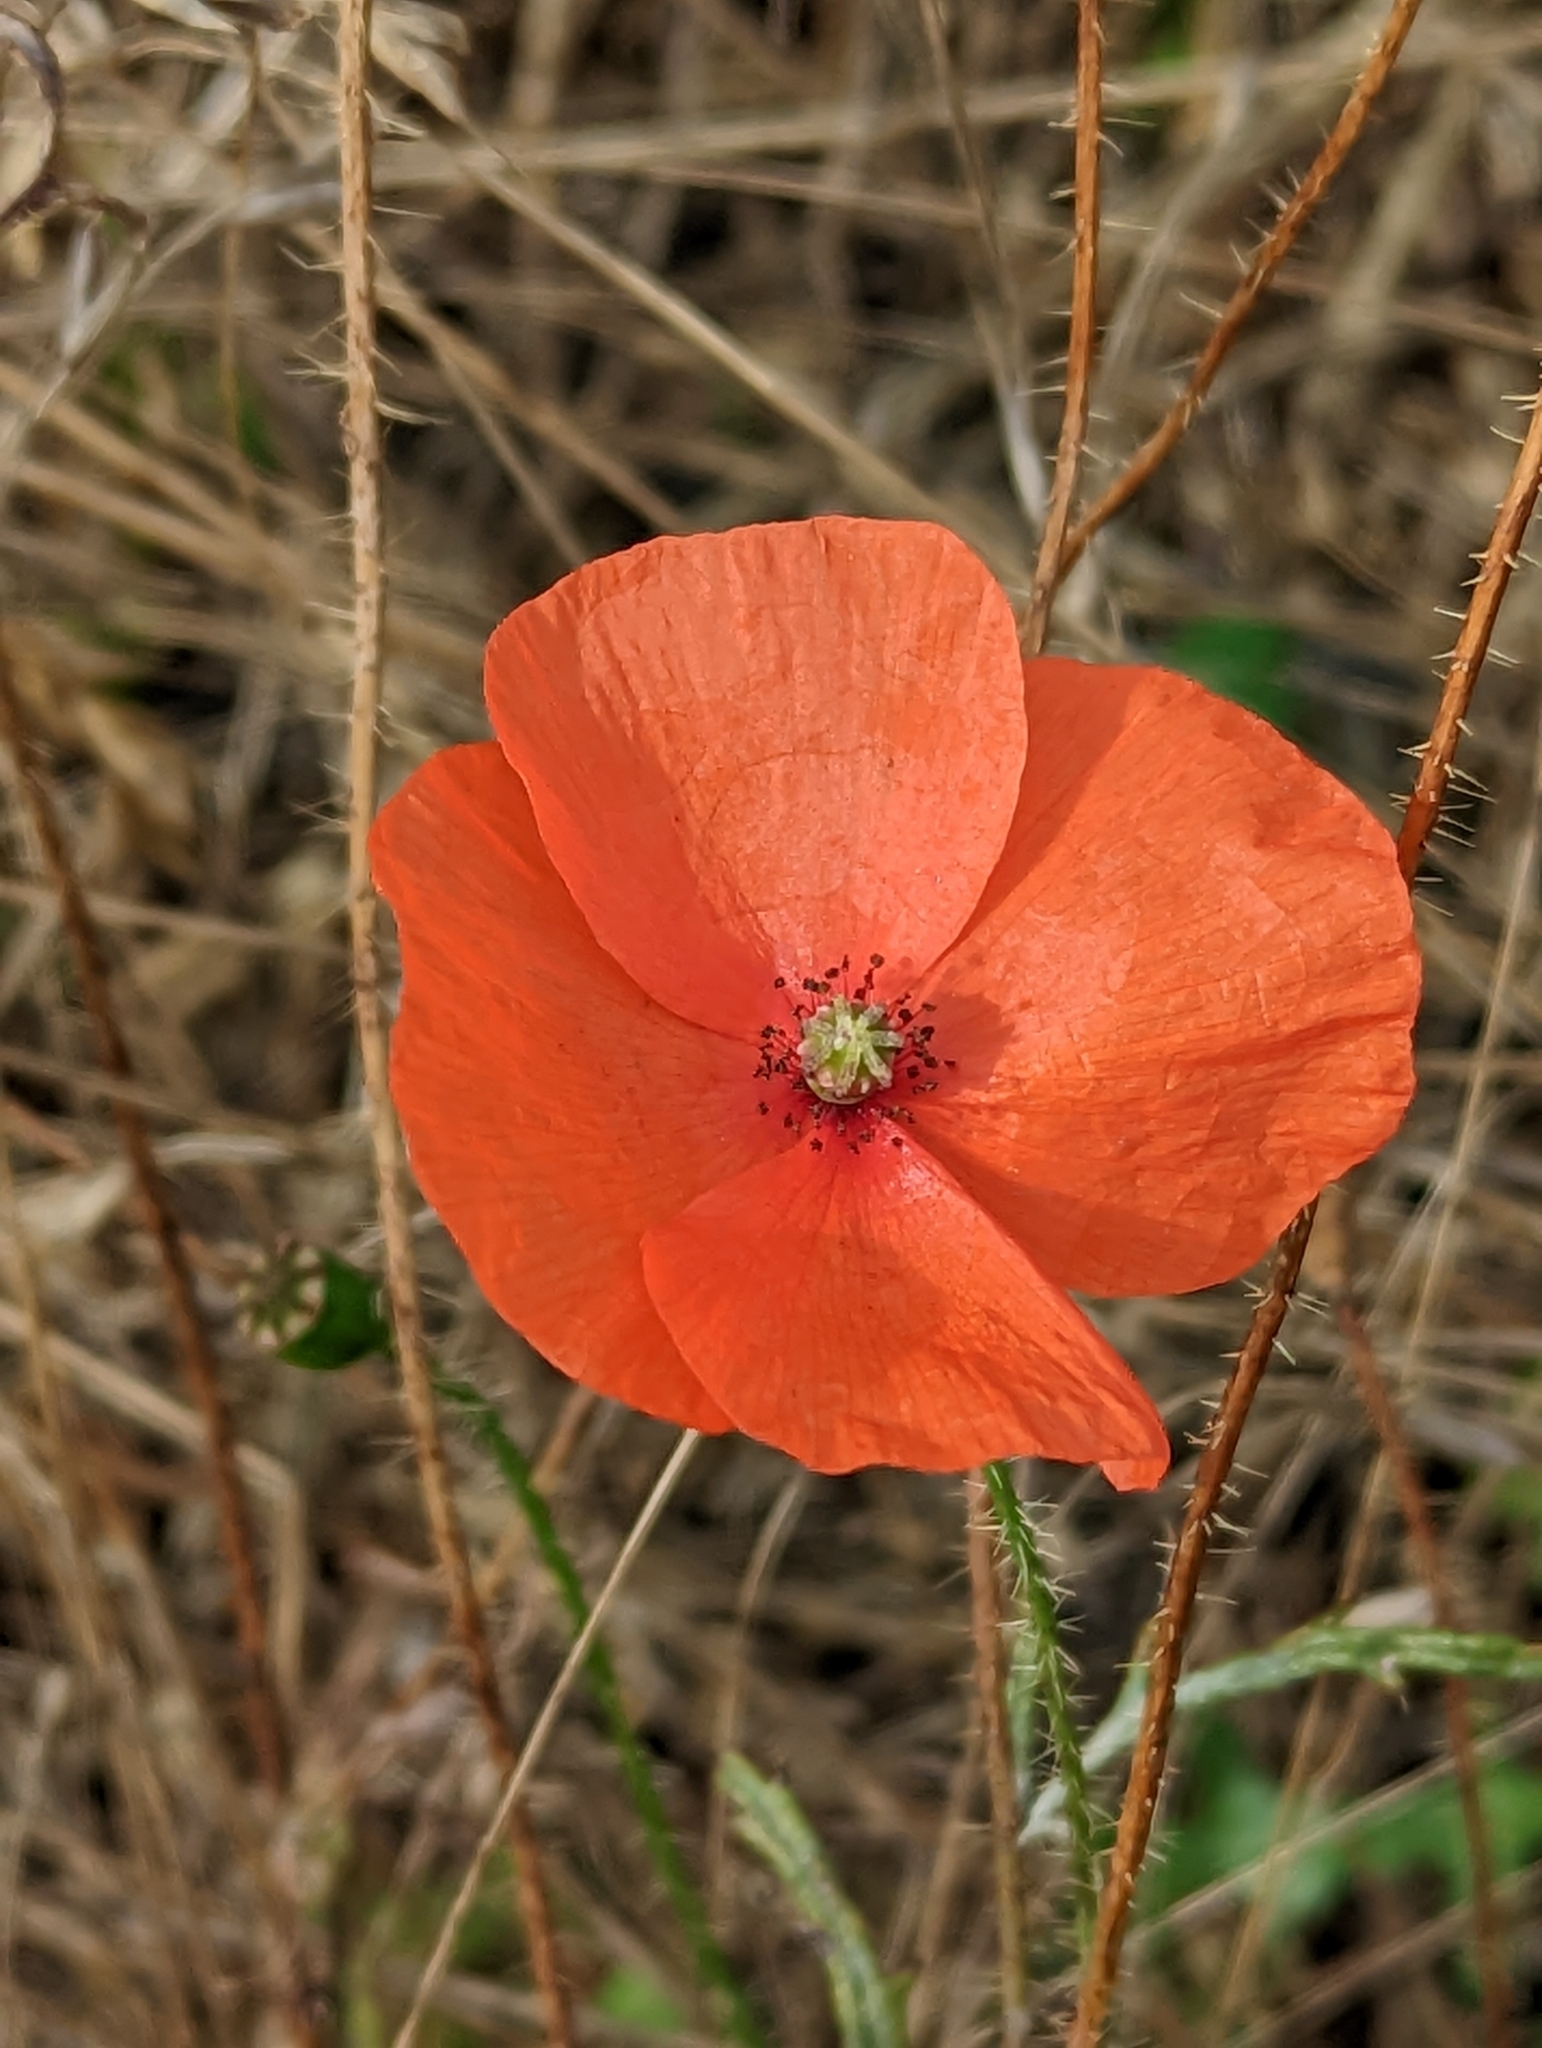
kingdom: Plantae
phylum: Tracheophyta
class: Magnoliopsida
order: Ranunculales
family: Papaveraceae
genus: Papaver
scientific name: Papaver rhoeas
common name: Corn poppy
